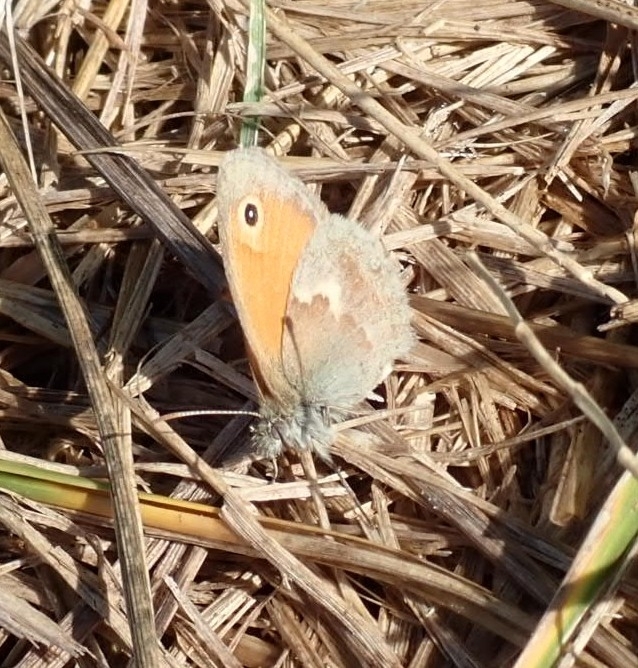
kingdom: Animalia
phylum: Arthropoda
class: Insecta
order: Lepidoptera
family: Nymphalidae
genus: Coenonympha
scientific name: Coenonympha pamphilus
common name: Small heath
